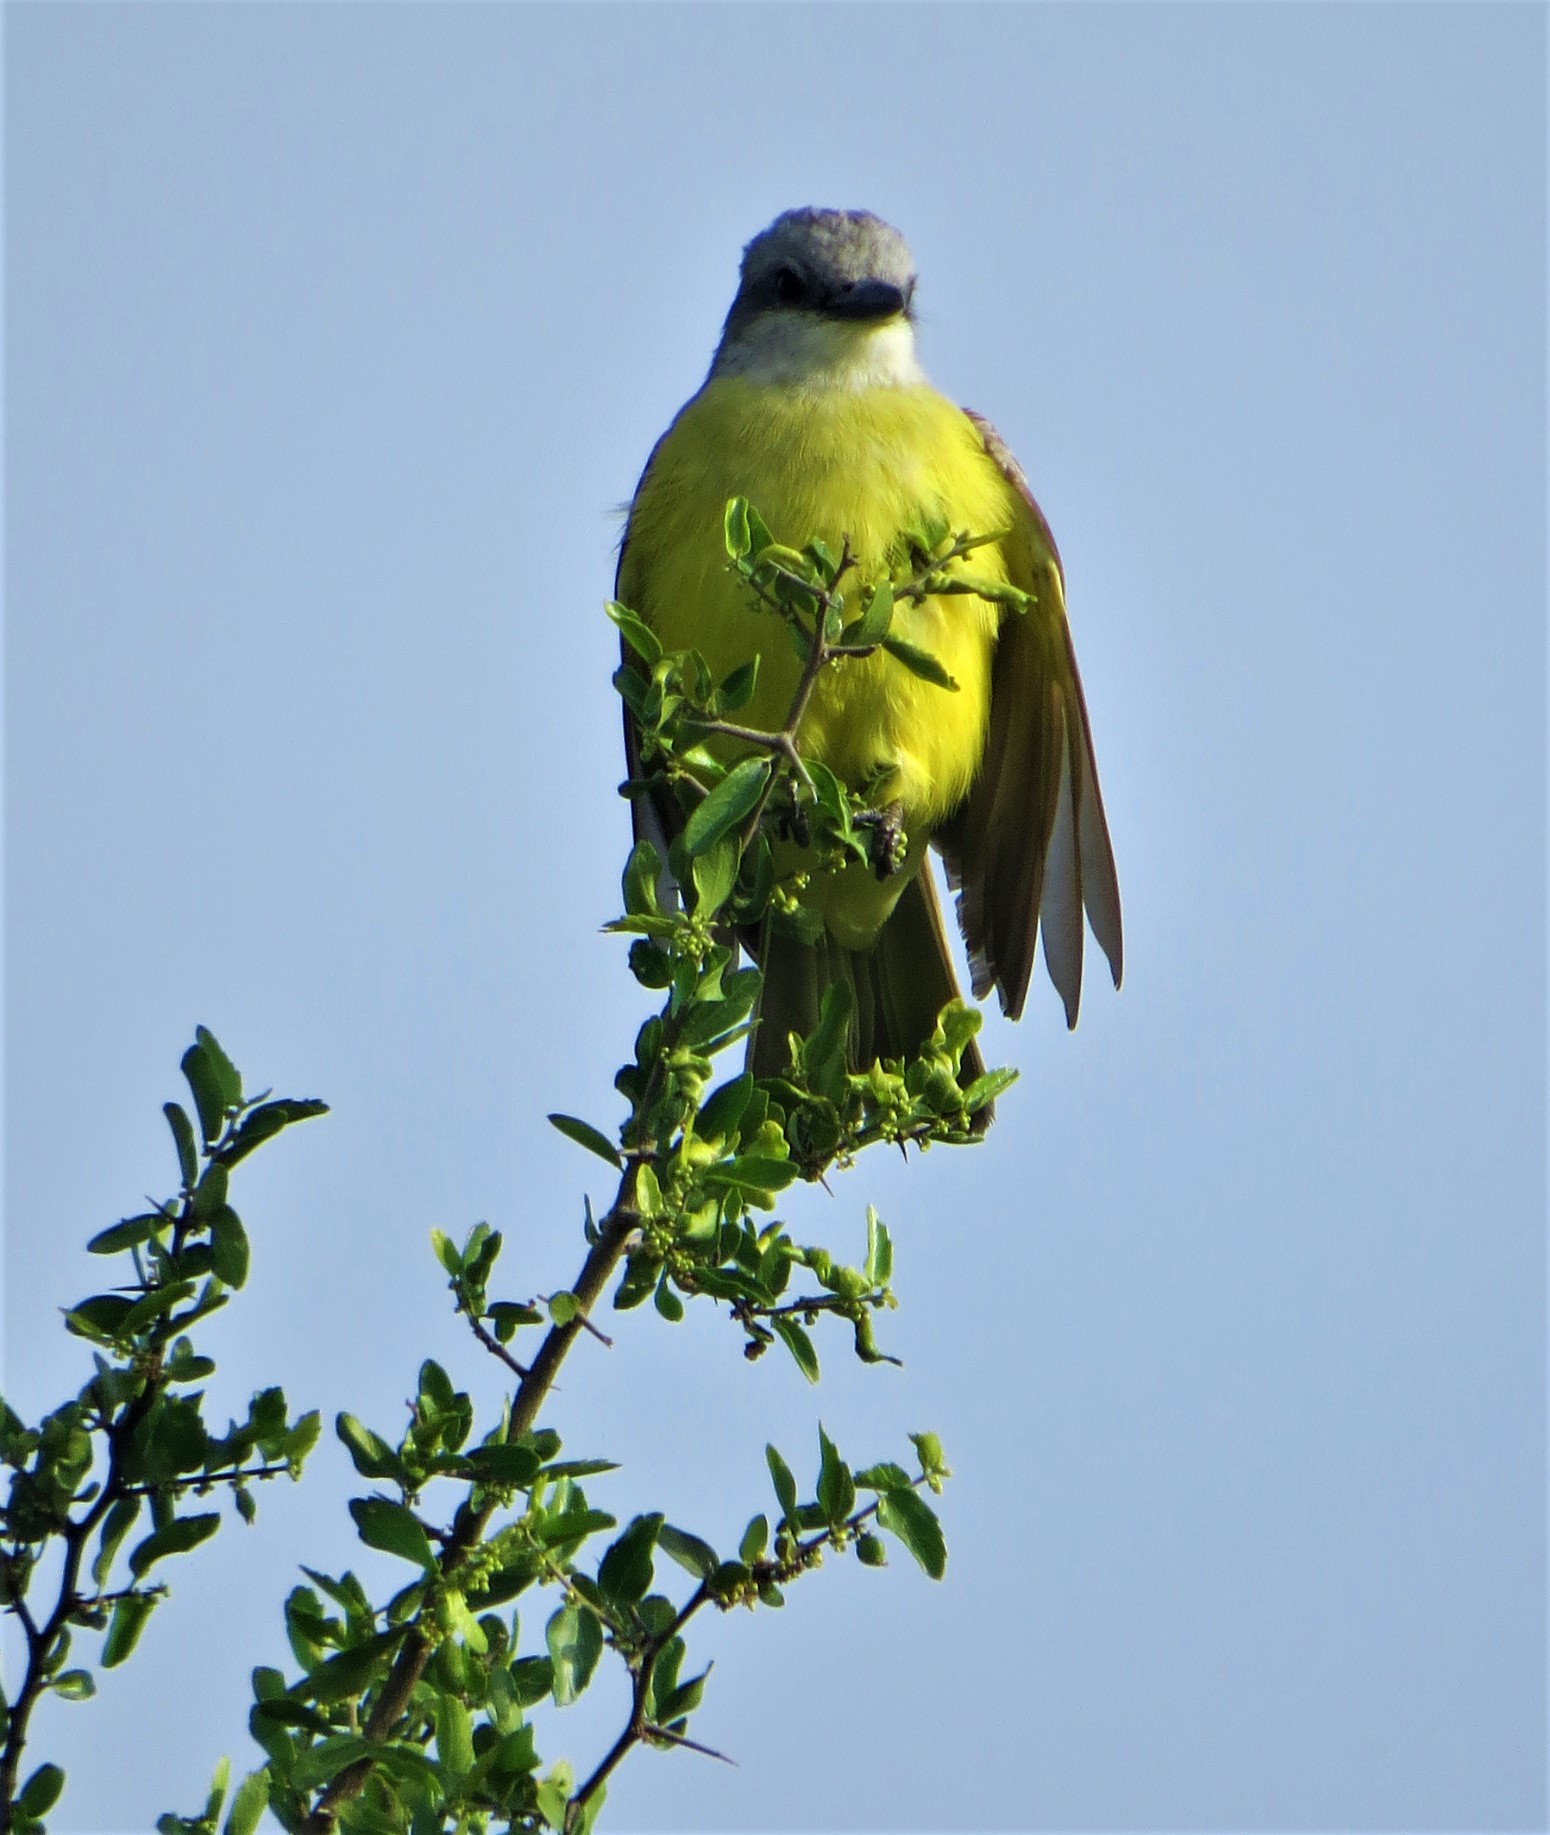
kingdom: Animalia
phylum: Chordata
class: Aves
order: Passeriformes
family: Tyrannidae
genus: Tyrannus
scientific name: Tyrannus
